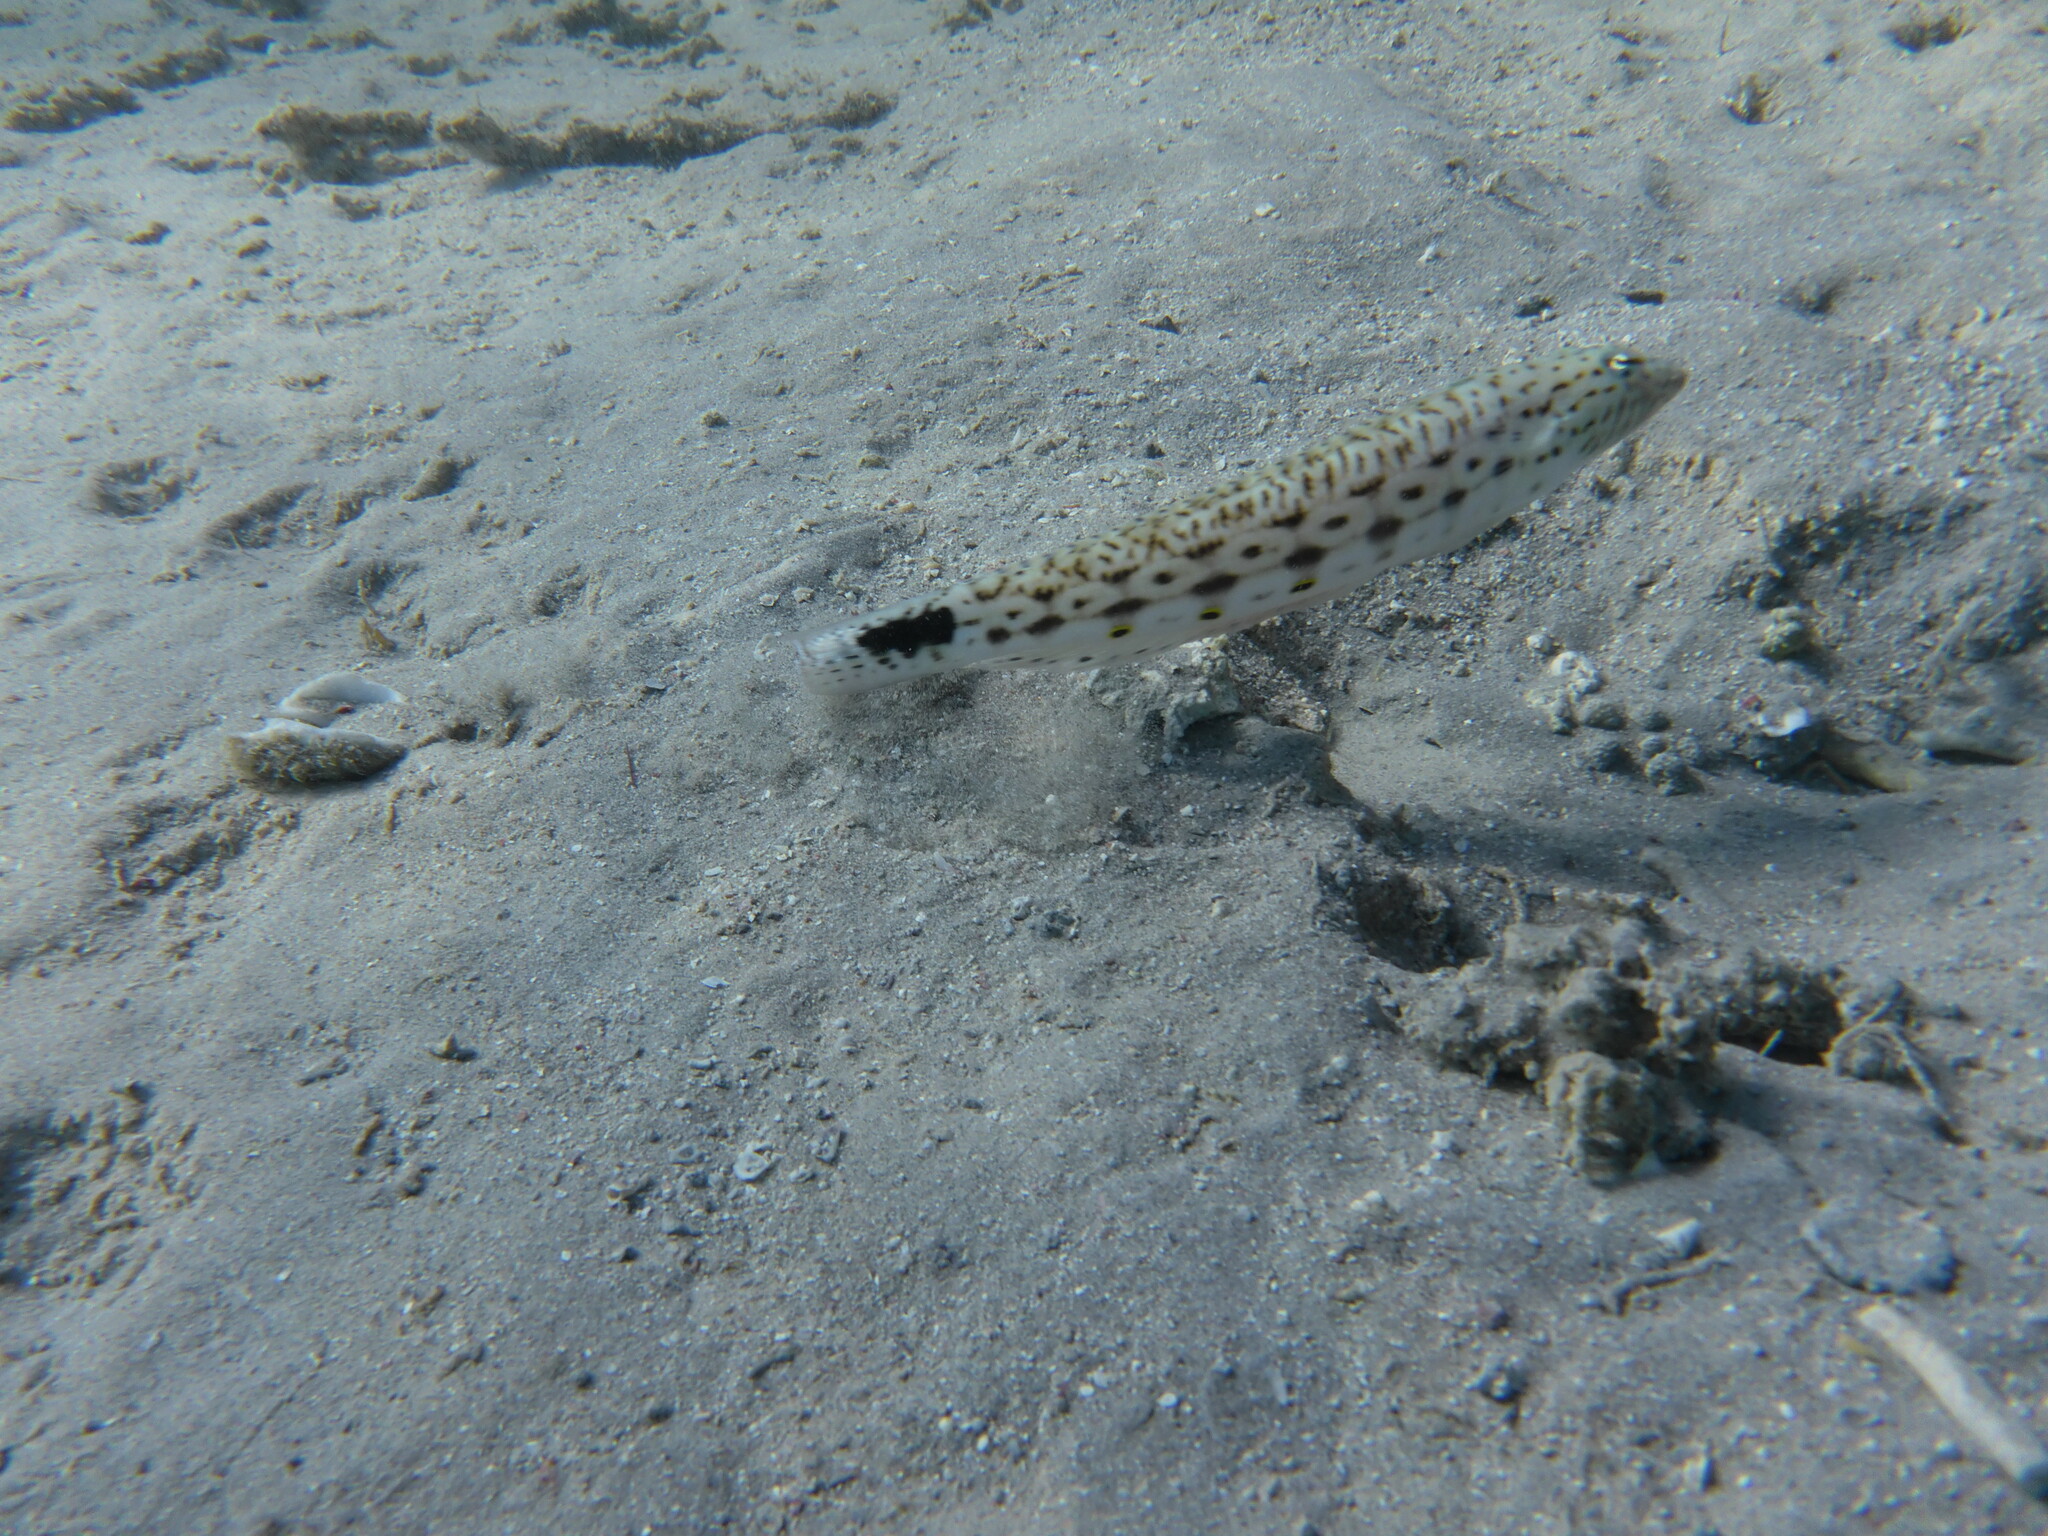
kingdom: Animalia
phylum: Chordata
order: Perciformes
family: Pinguipedidae
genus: Parapercis
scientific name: Parapercis hexophtalma
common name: Speckled sandperch
